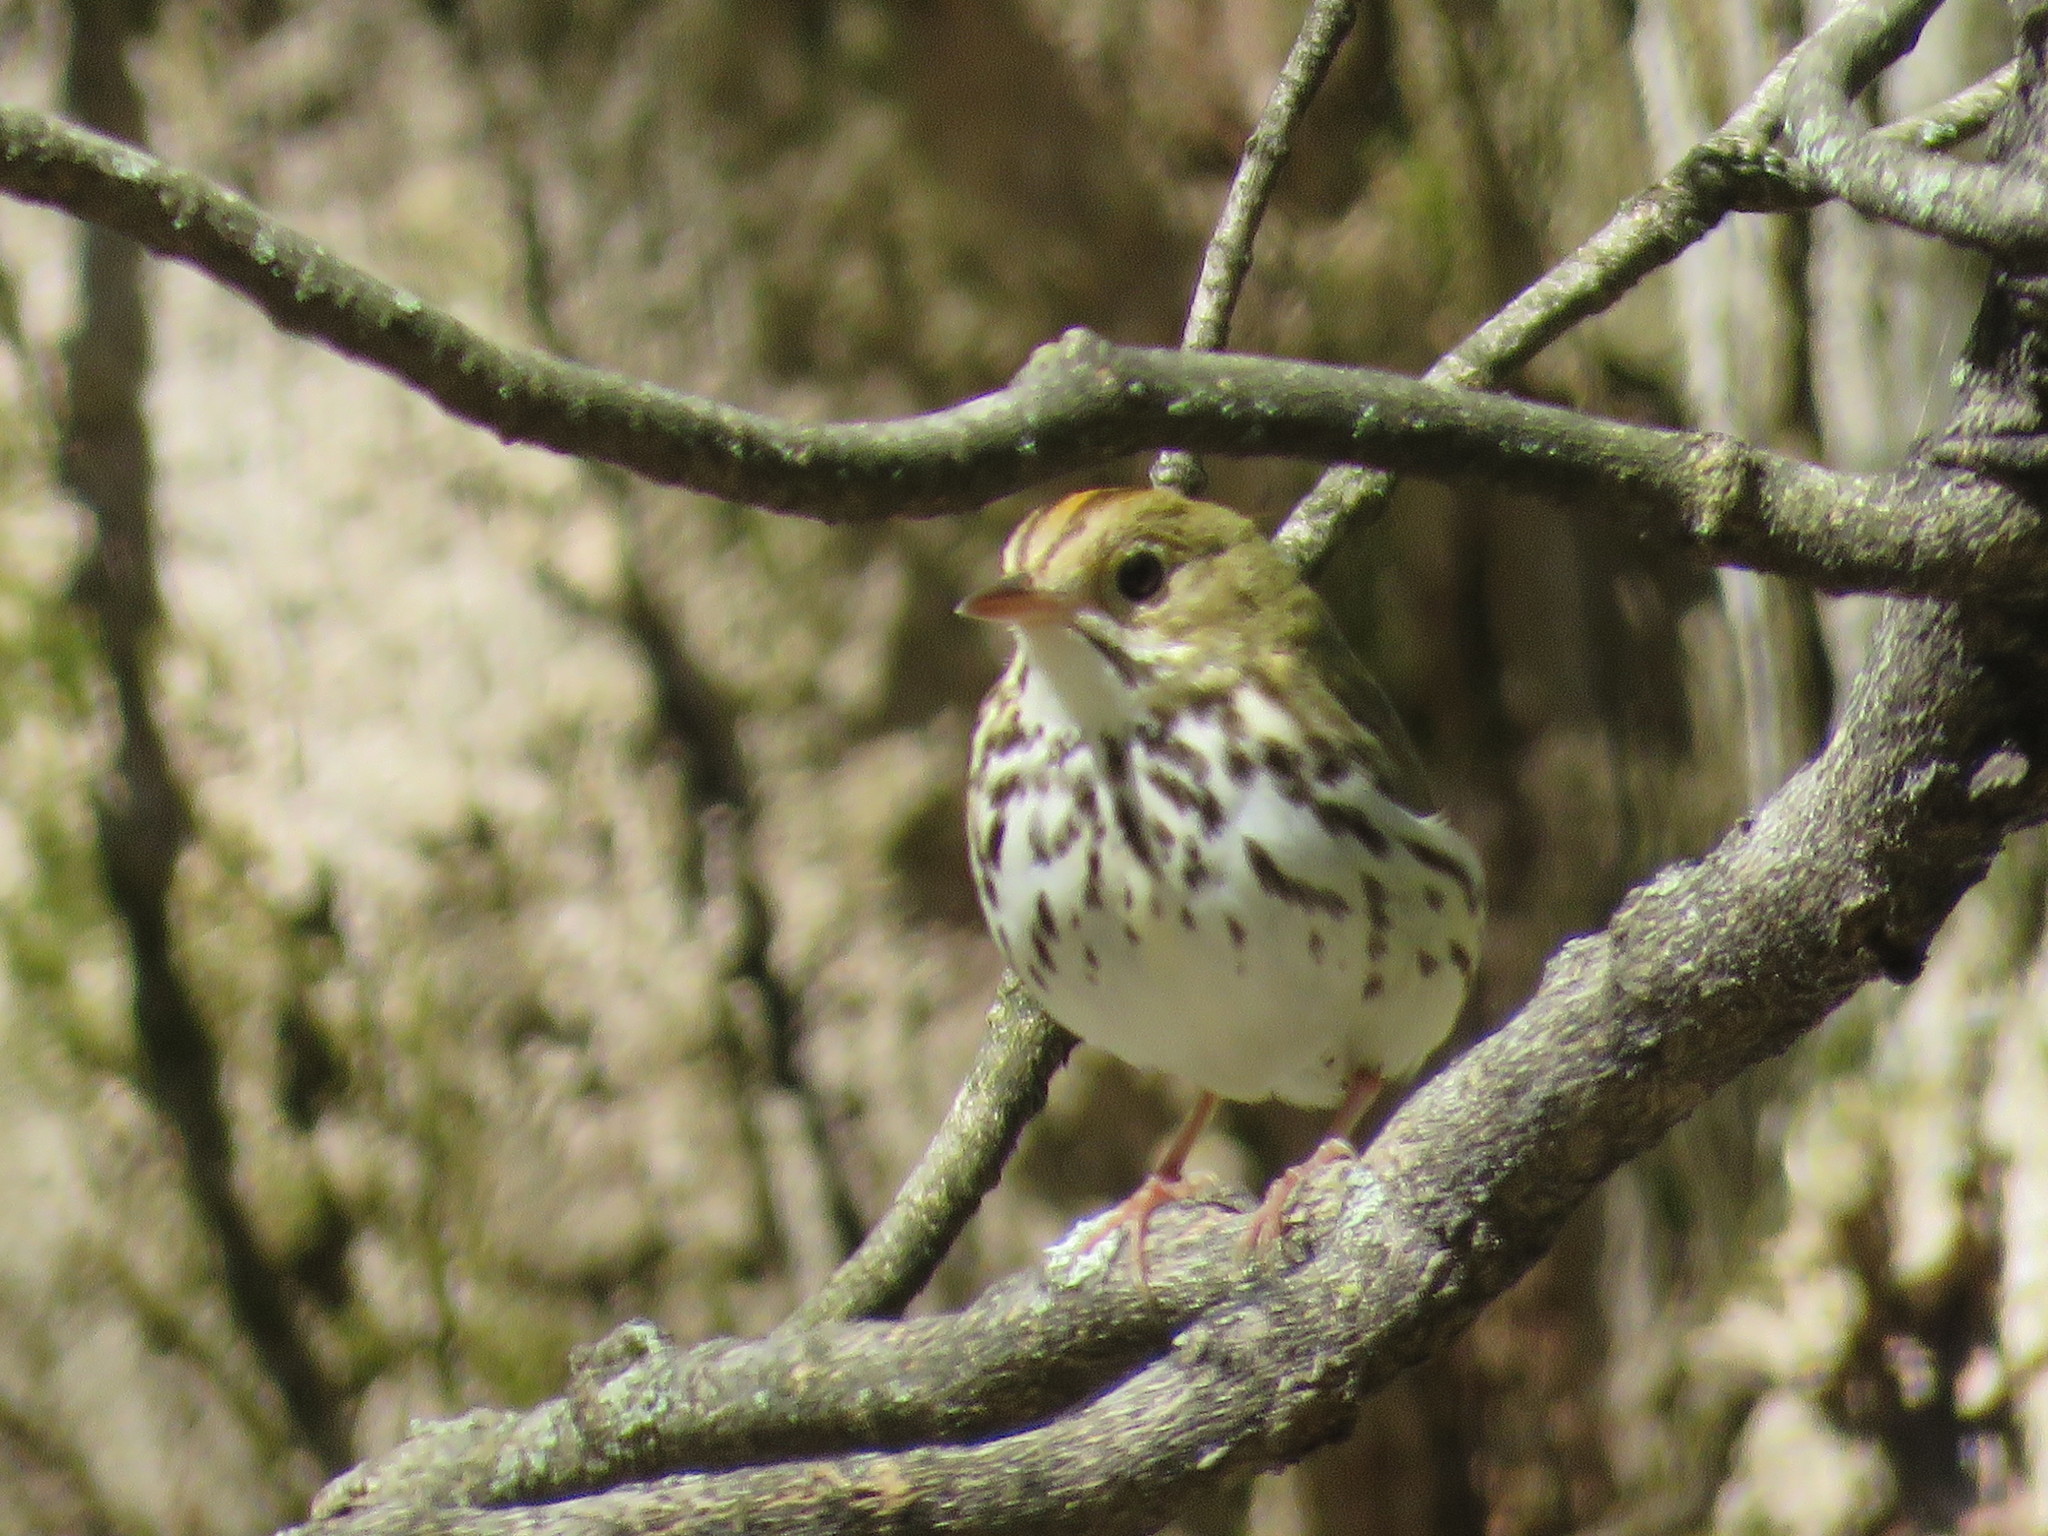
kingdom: Animalia
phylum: Chordata
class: Aves
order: Passeriformes
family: Parulidae
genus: Seiurus
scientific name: Seiurus aurocapilla
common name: Ovenbird
